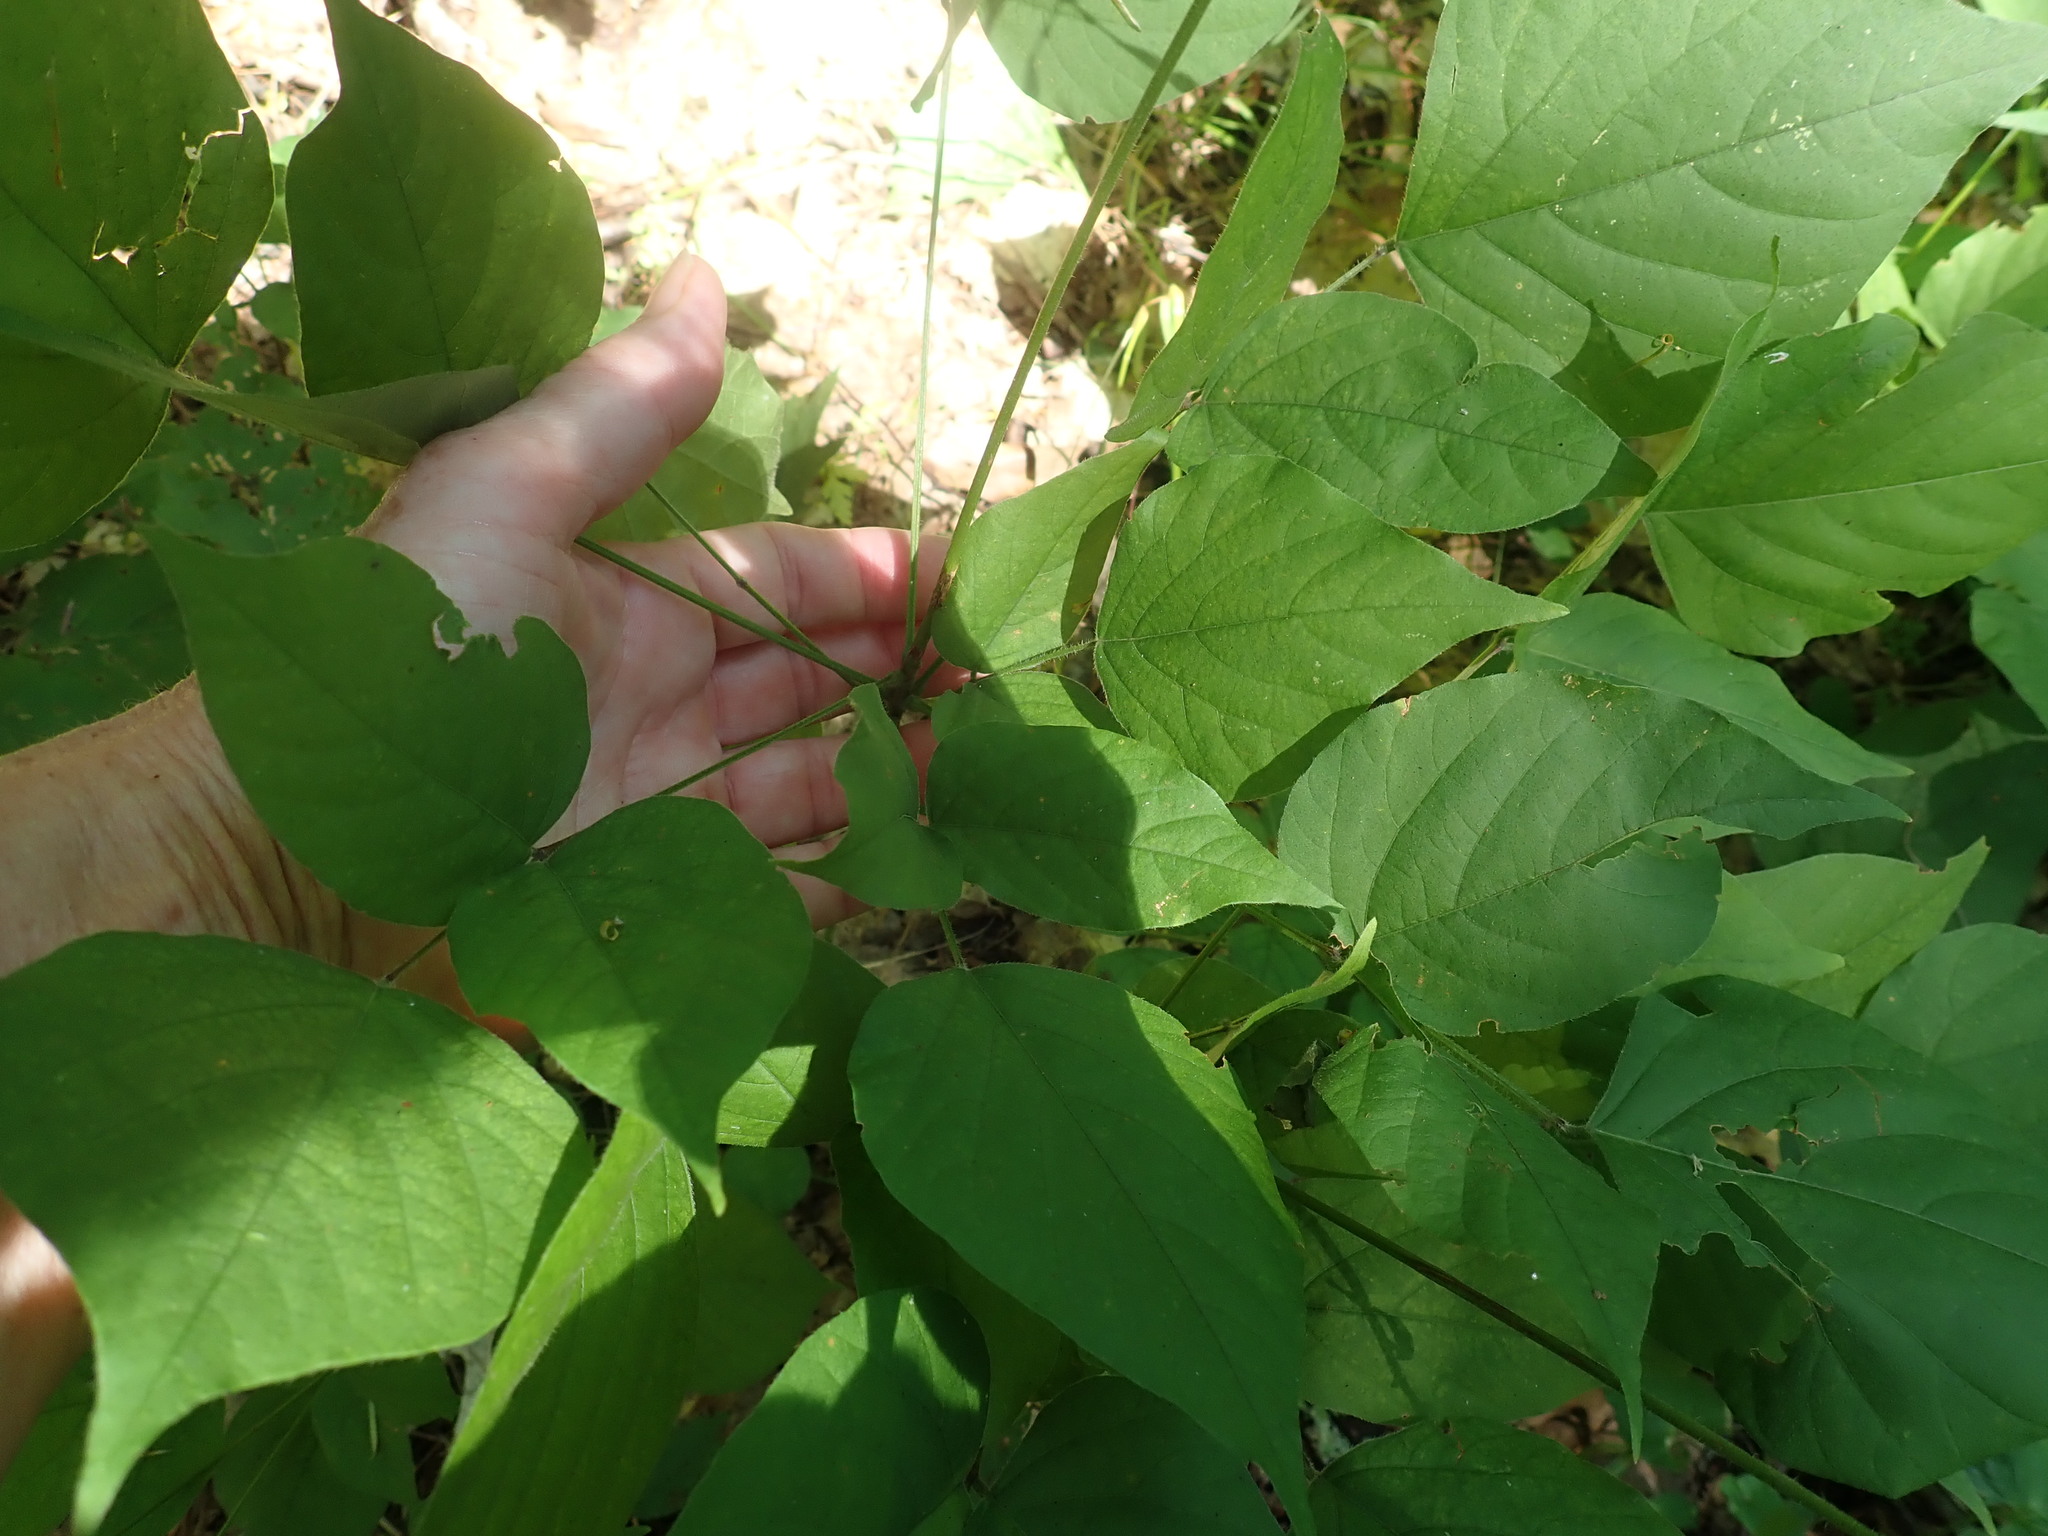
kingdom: Plantae
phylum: Tracheophyta
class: Magnoliopsida
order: Fabales
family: Fabaceae
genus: Hylodesmum
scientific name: Hylodesmum glutinosum
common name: Clustered-leaved tick-trefoil
